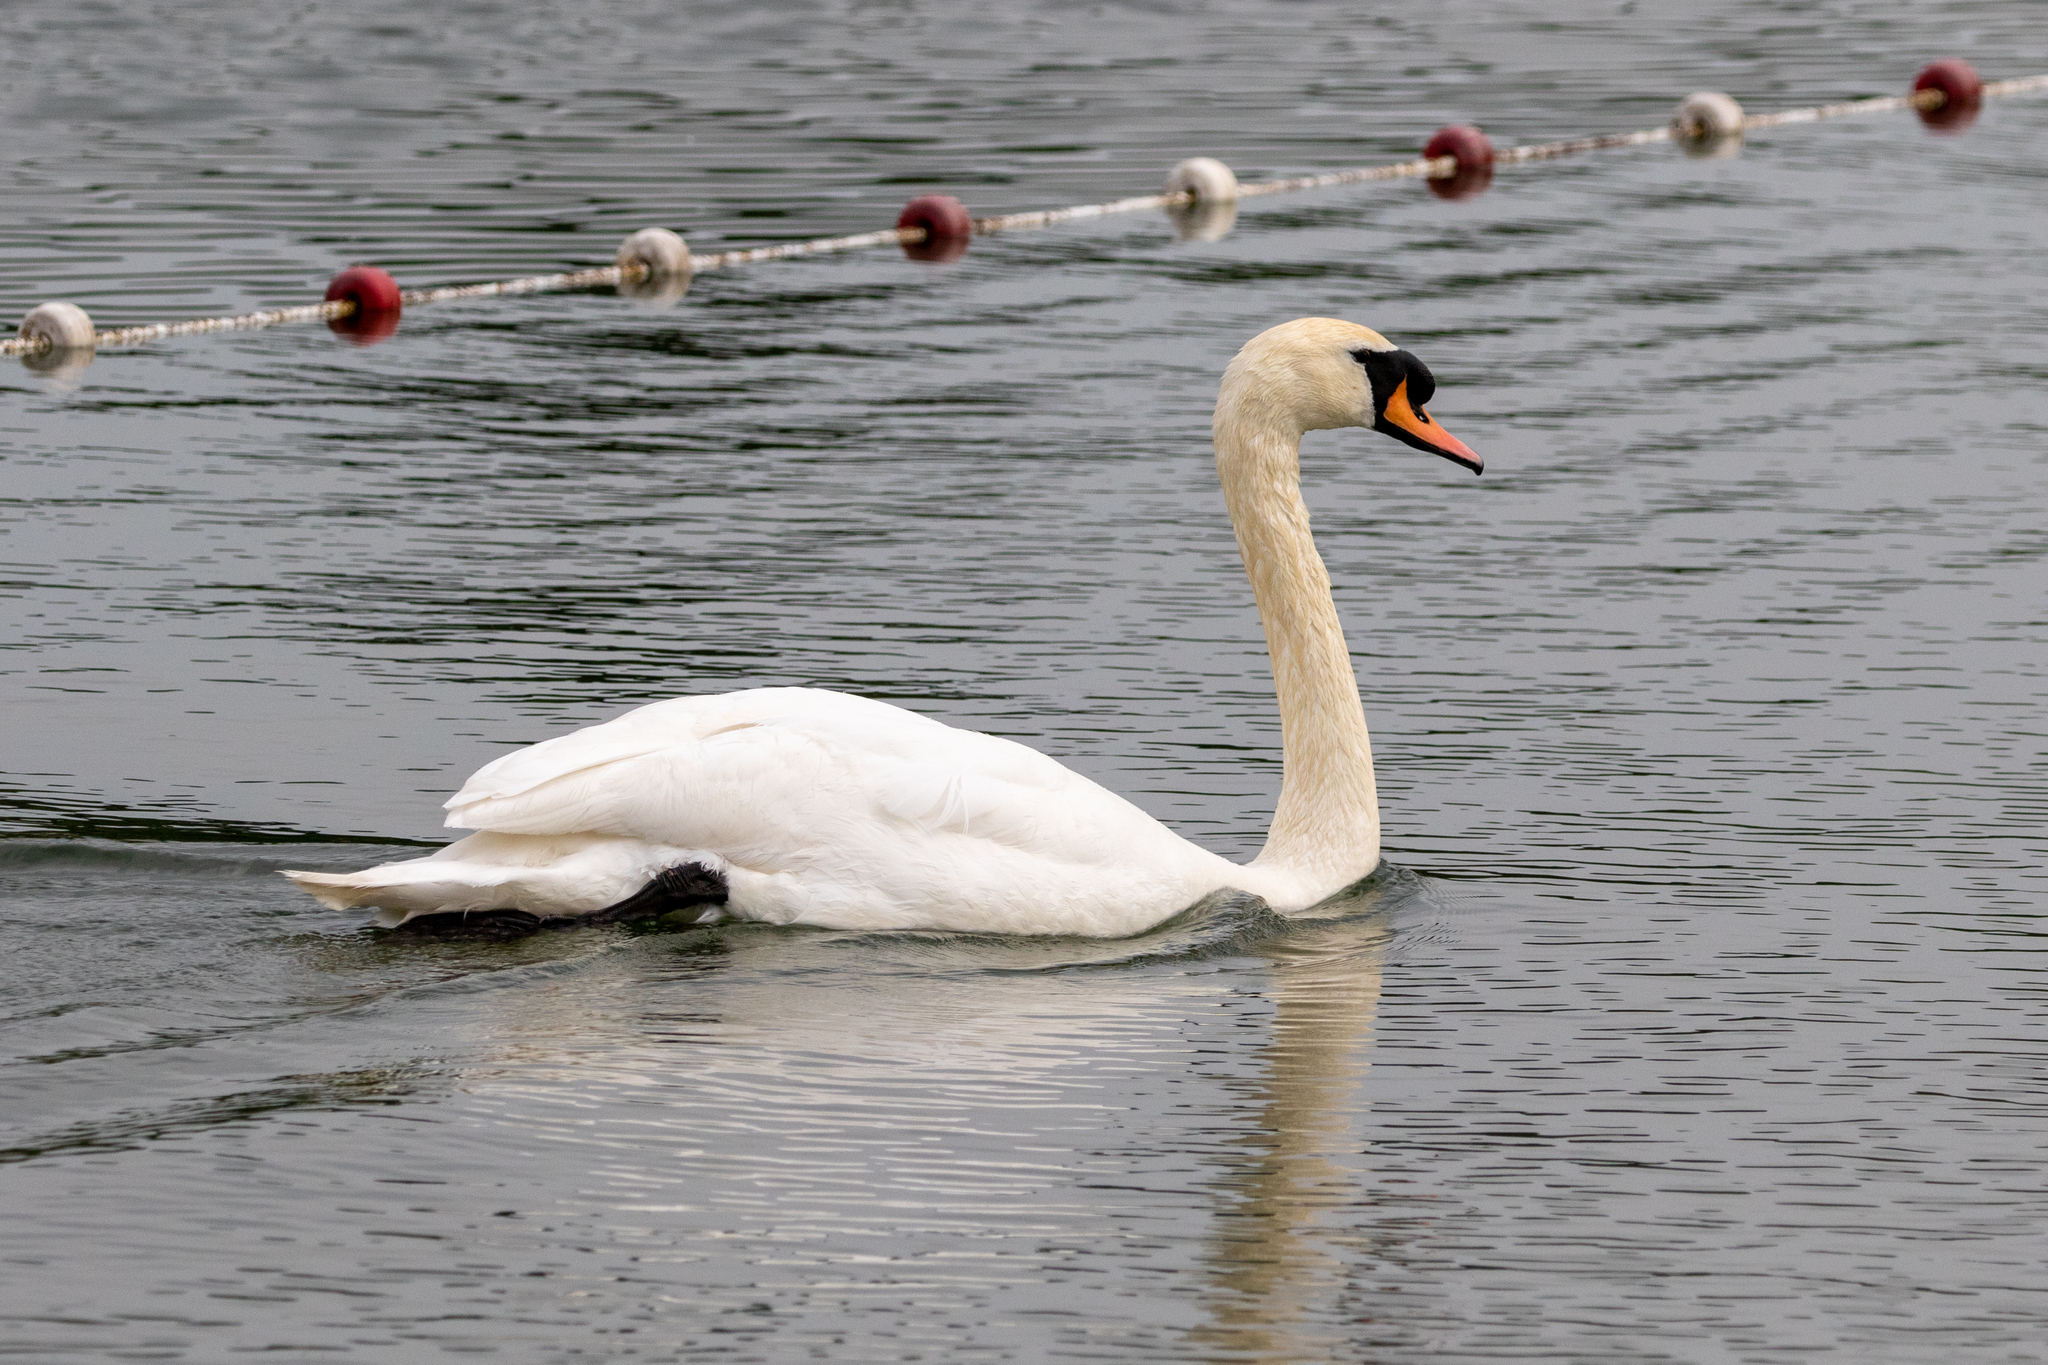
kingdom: Animalia
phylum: Chordata
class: Aves
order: Anseriformes
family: Anatidae
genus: Cygnus
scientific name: Cygnus olor
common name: Mute swan
